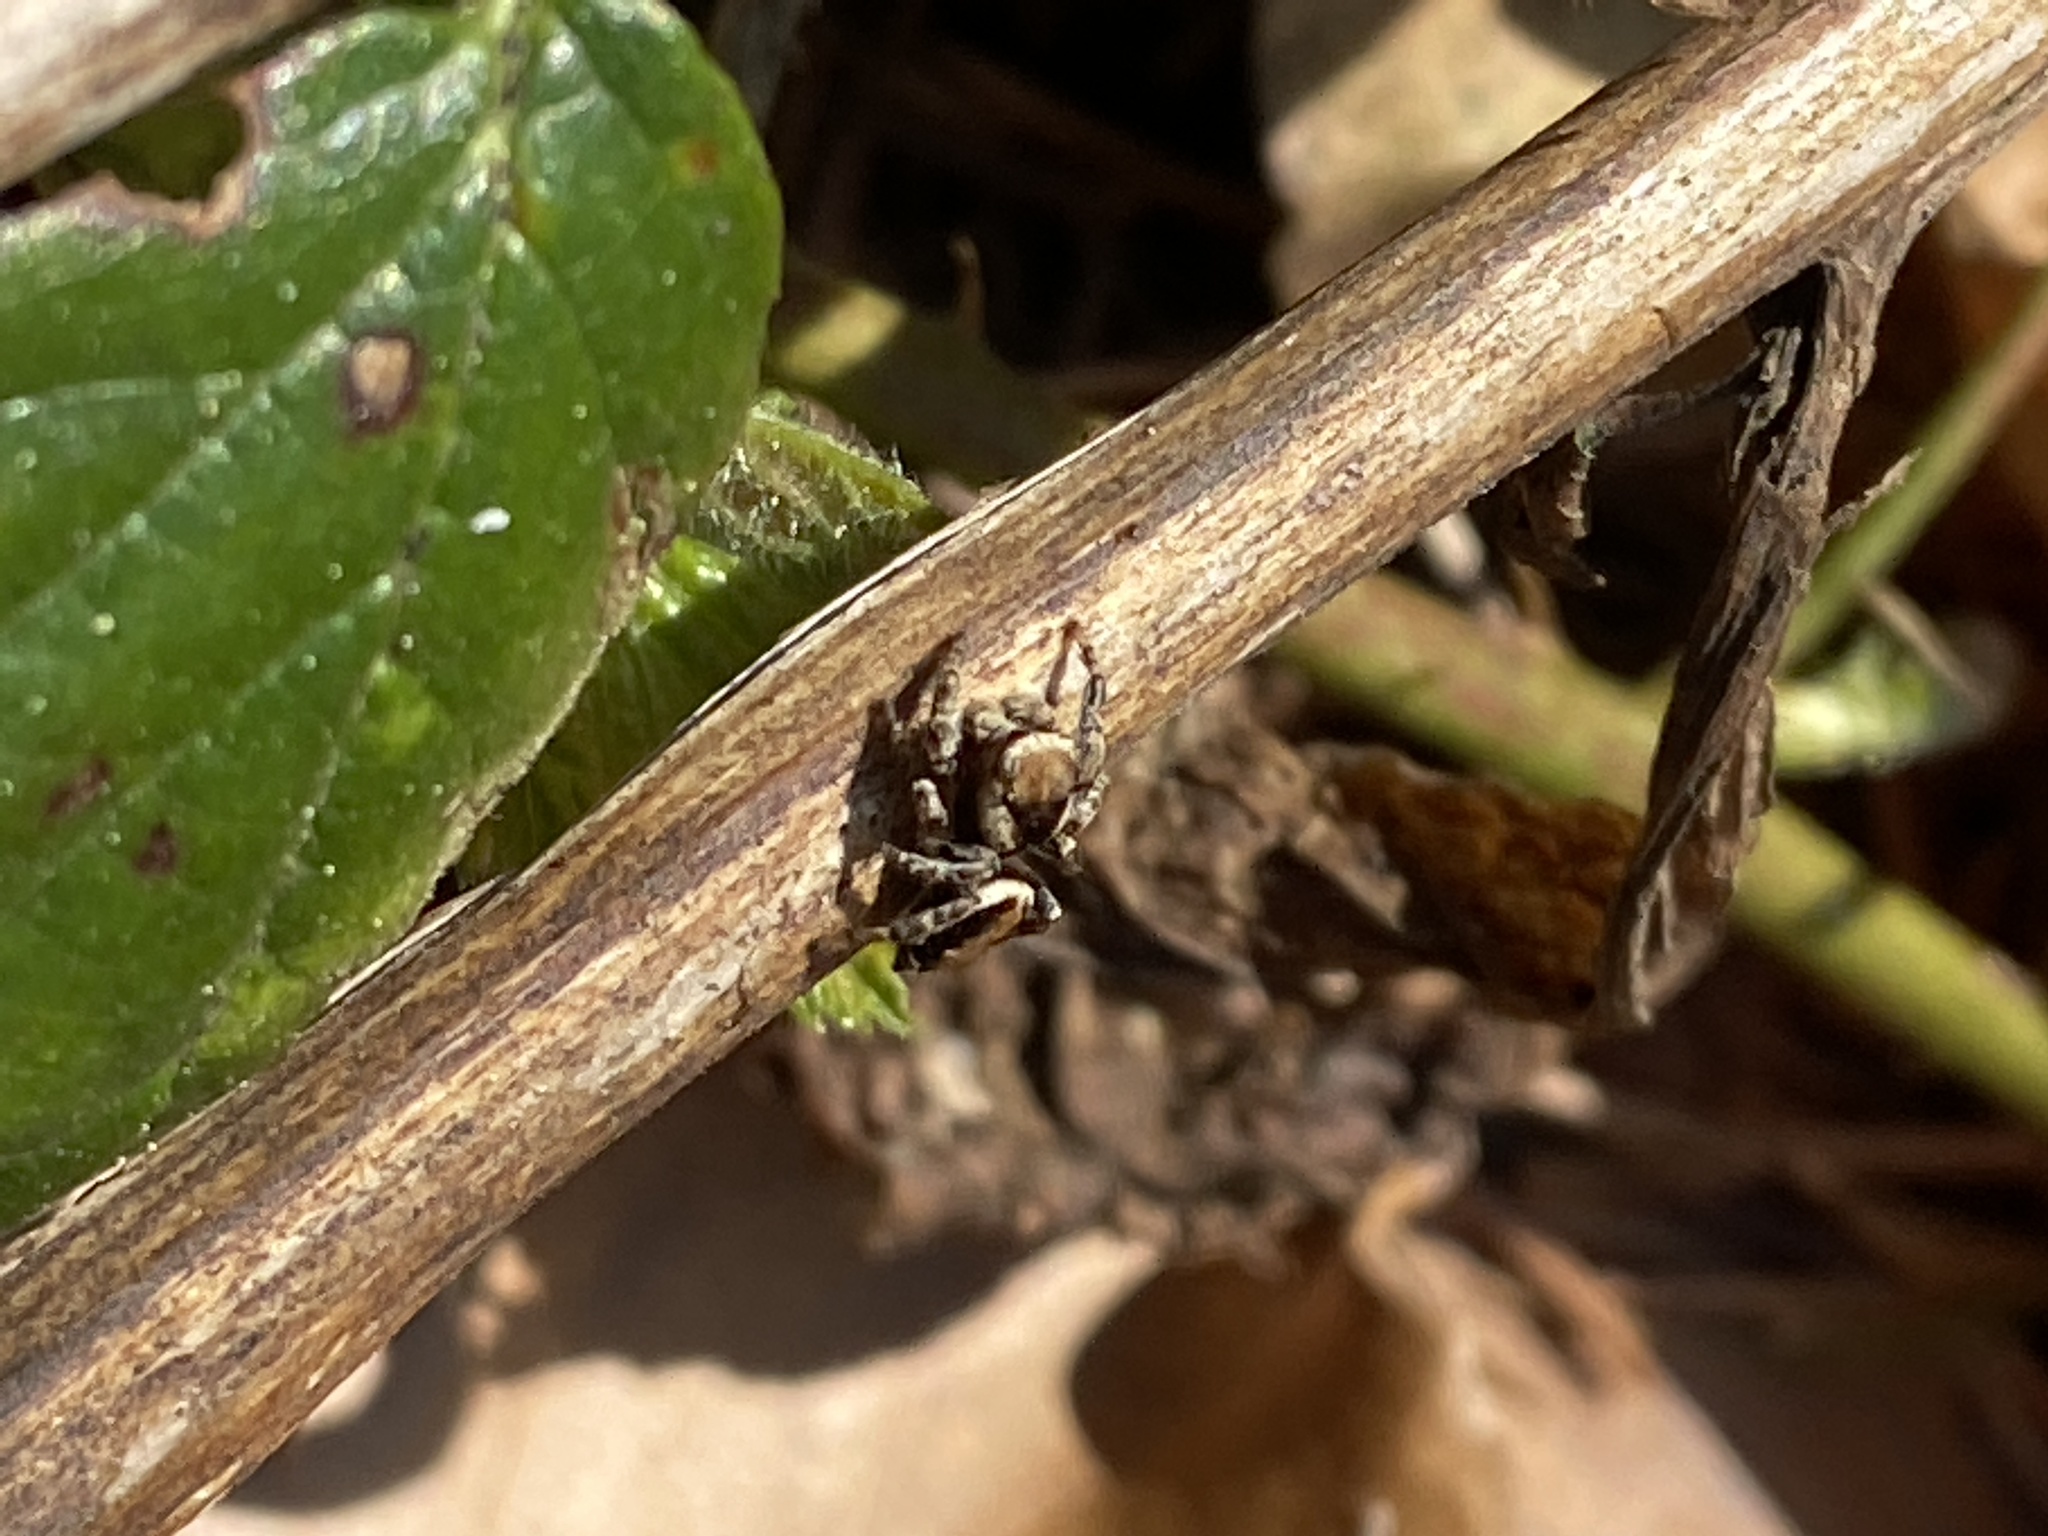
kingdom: Animalia
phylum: Arthropoda
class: Arachnida
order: Araneae
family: Salticidae
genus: Evarcha
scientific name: Evarcha falcata
